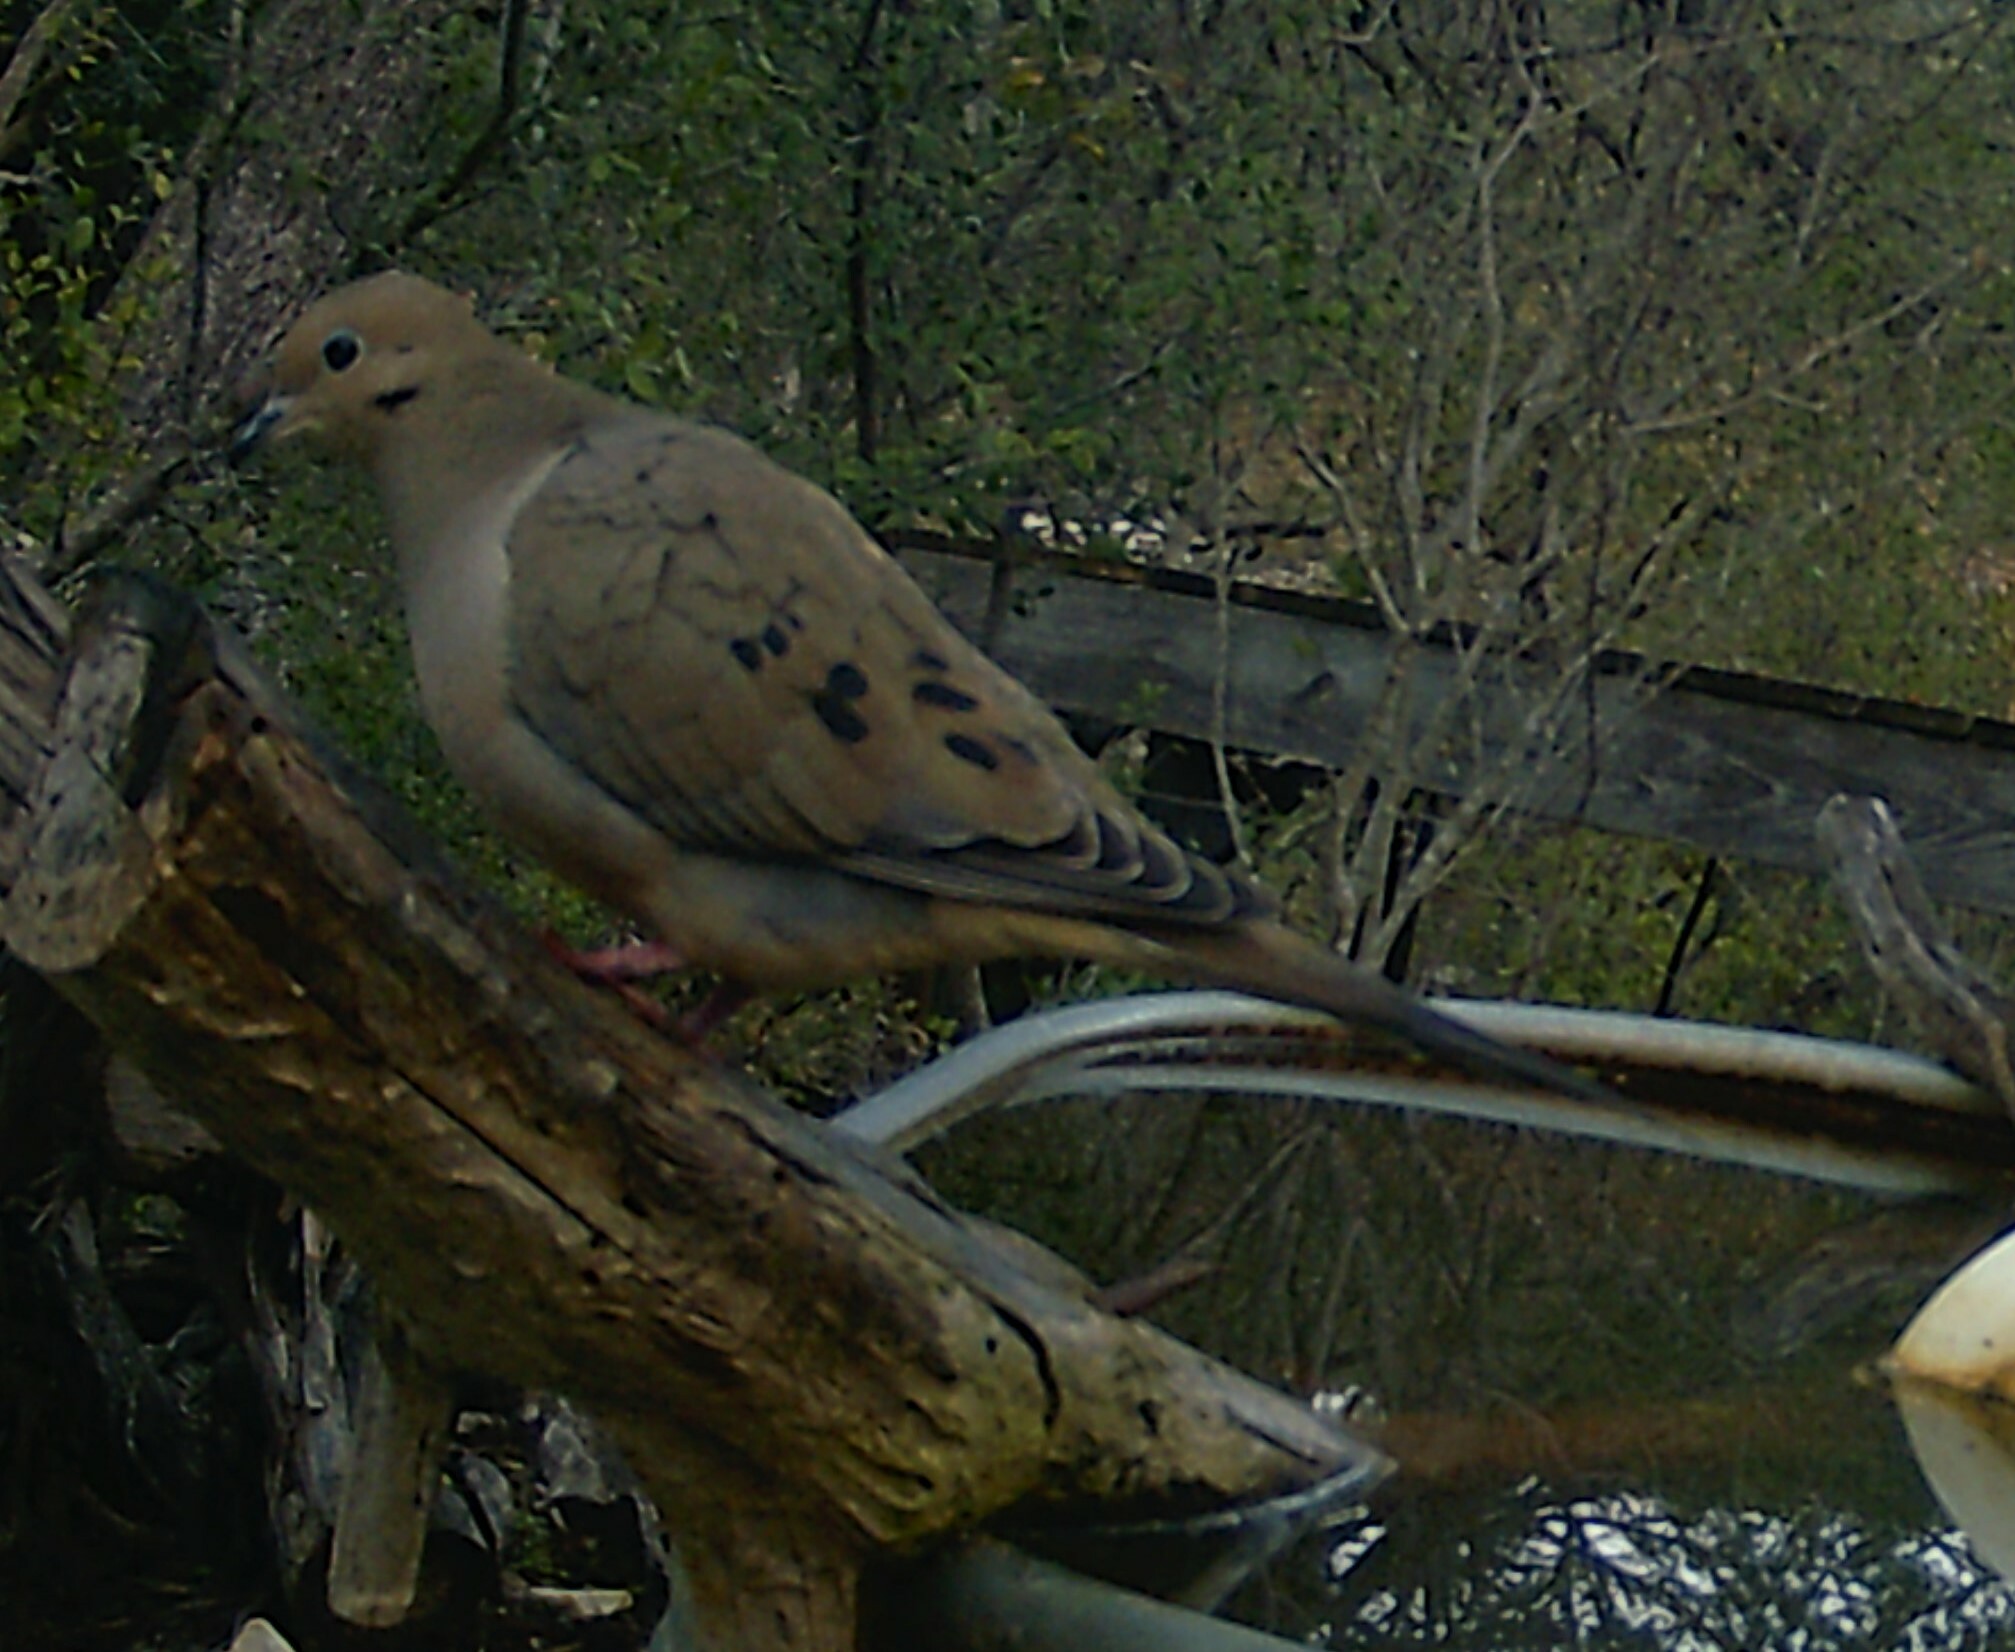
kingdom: Animalia
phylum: Chordata
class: Aves
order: Columbiformes
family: Columbidae
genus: Zenaida
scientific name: Zenaida macroura
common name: Mourning dove
